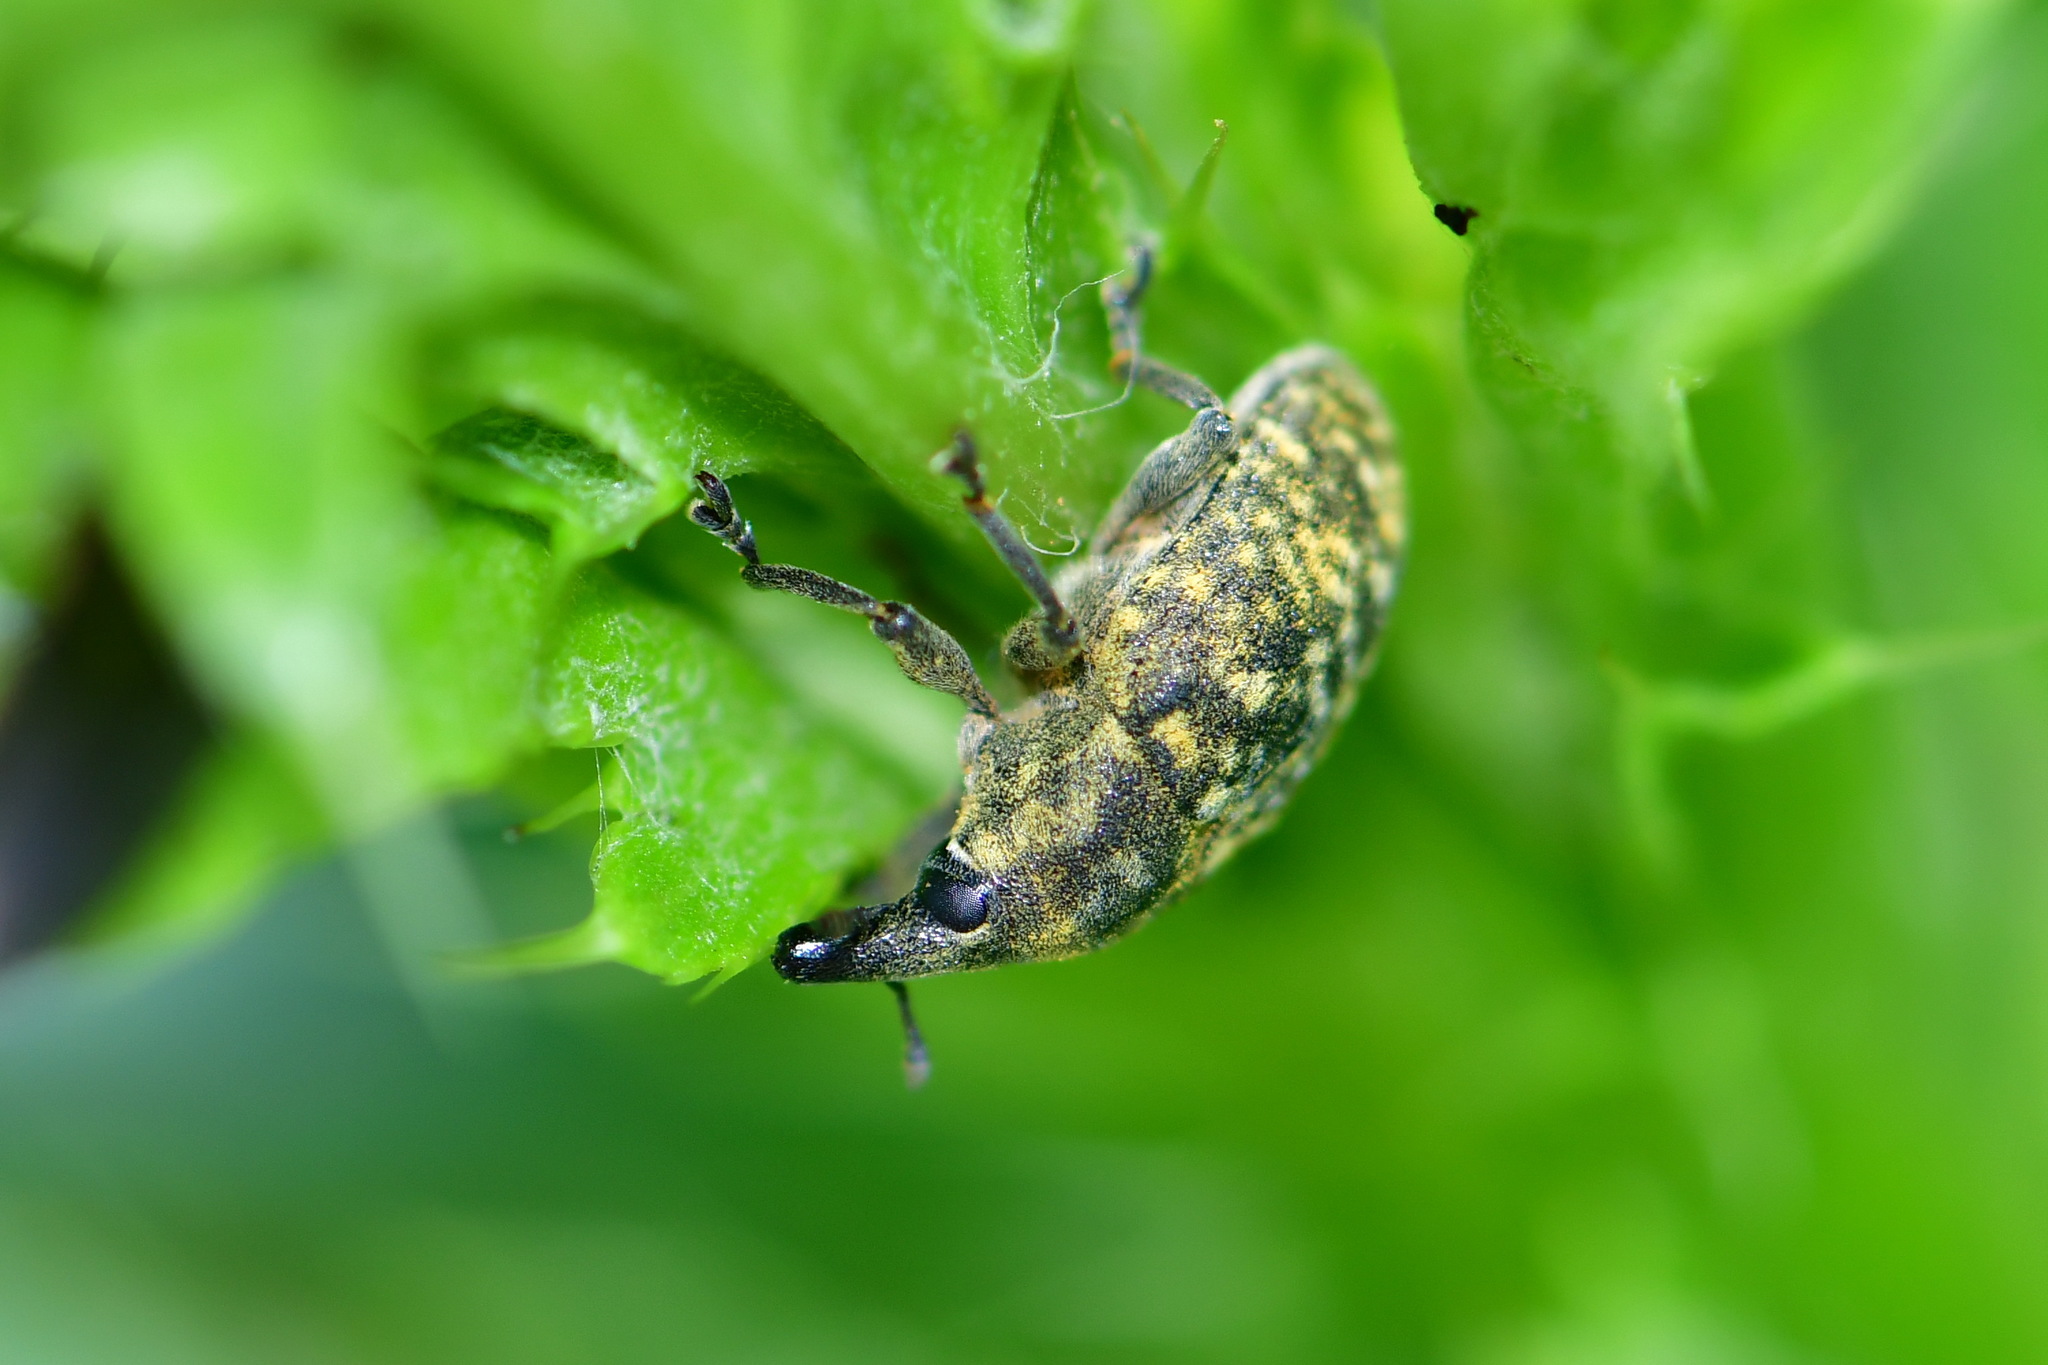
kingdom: Animalia
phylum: Arthropoda
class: Insecta
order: Coleoptera
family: Curculionidae
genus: Larinus
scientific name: Larinus turbinatus
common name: Weevil
